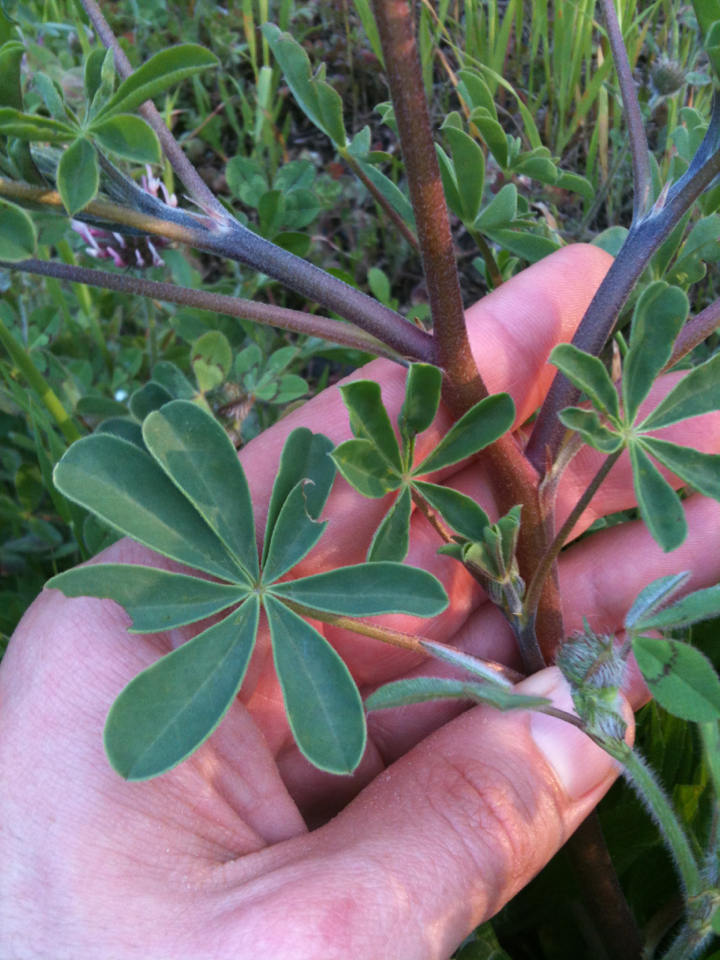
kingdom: Plantae
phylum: Tracheophyta
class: Magnoliopsida
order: Fabales
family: Fabaceae
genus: Lupinus
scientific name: Lupinus succulentus
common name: Arroyo lupine
